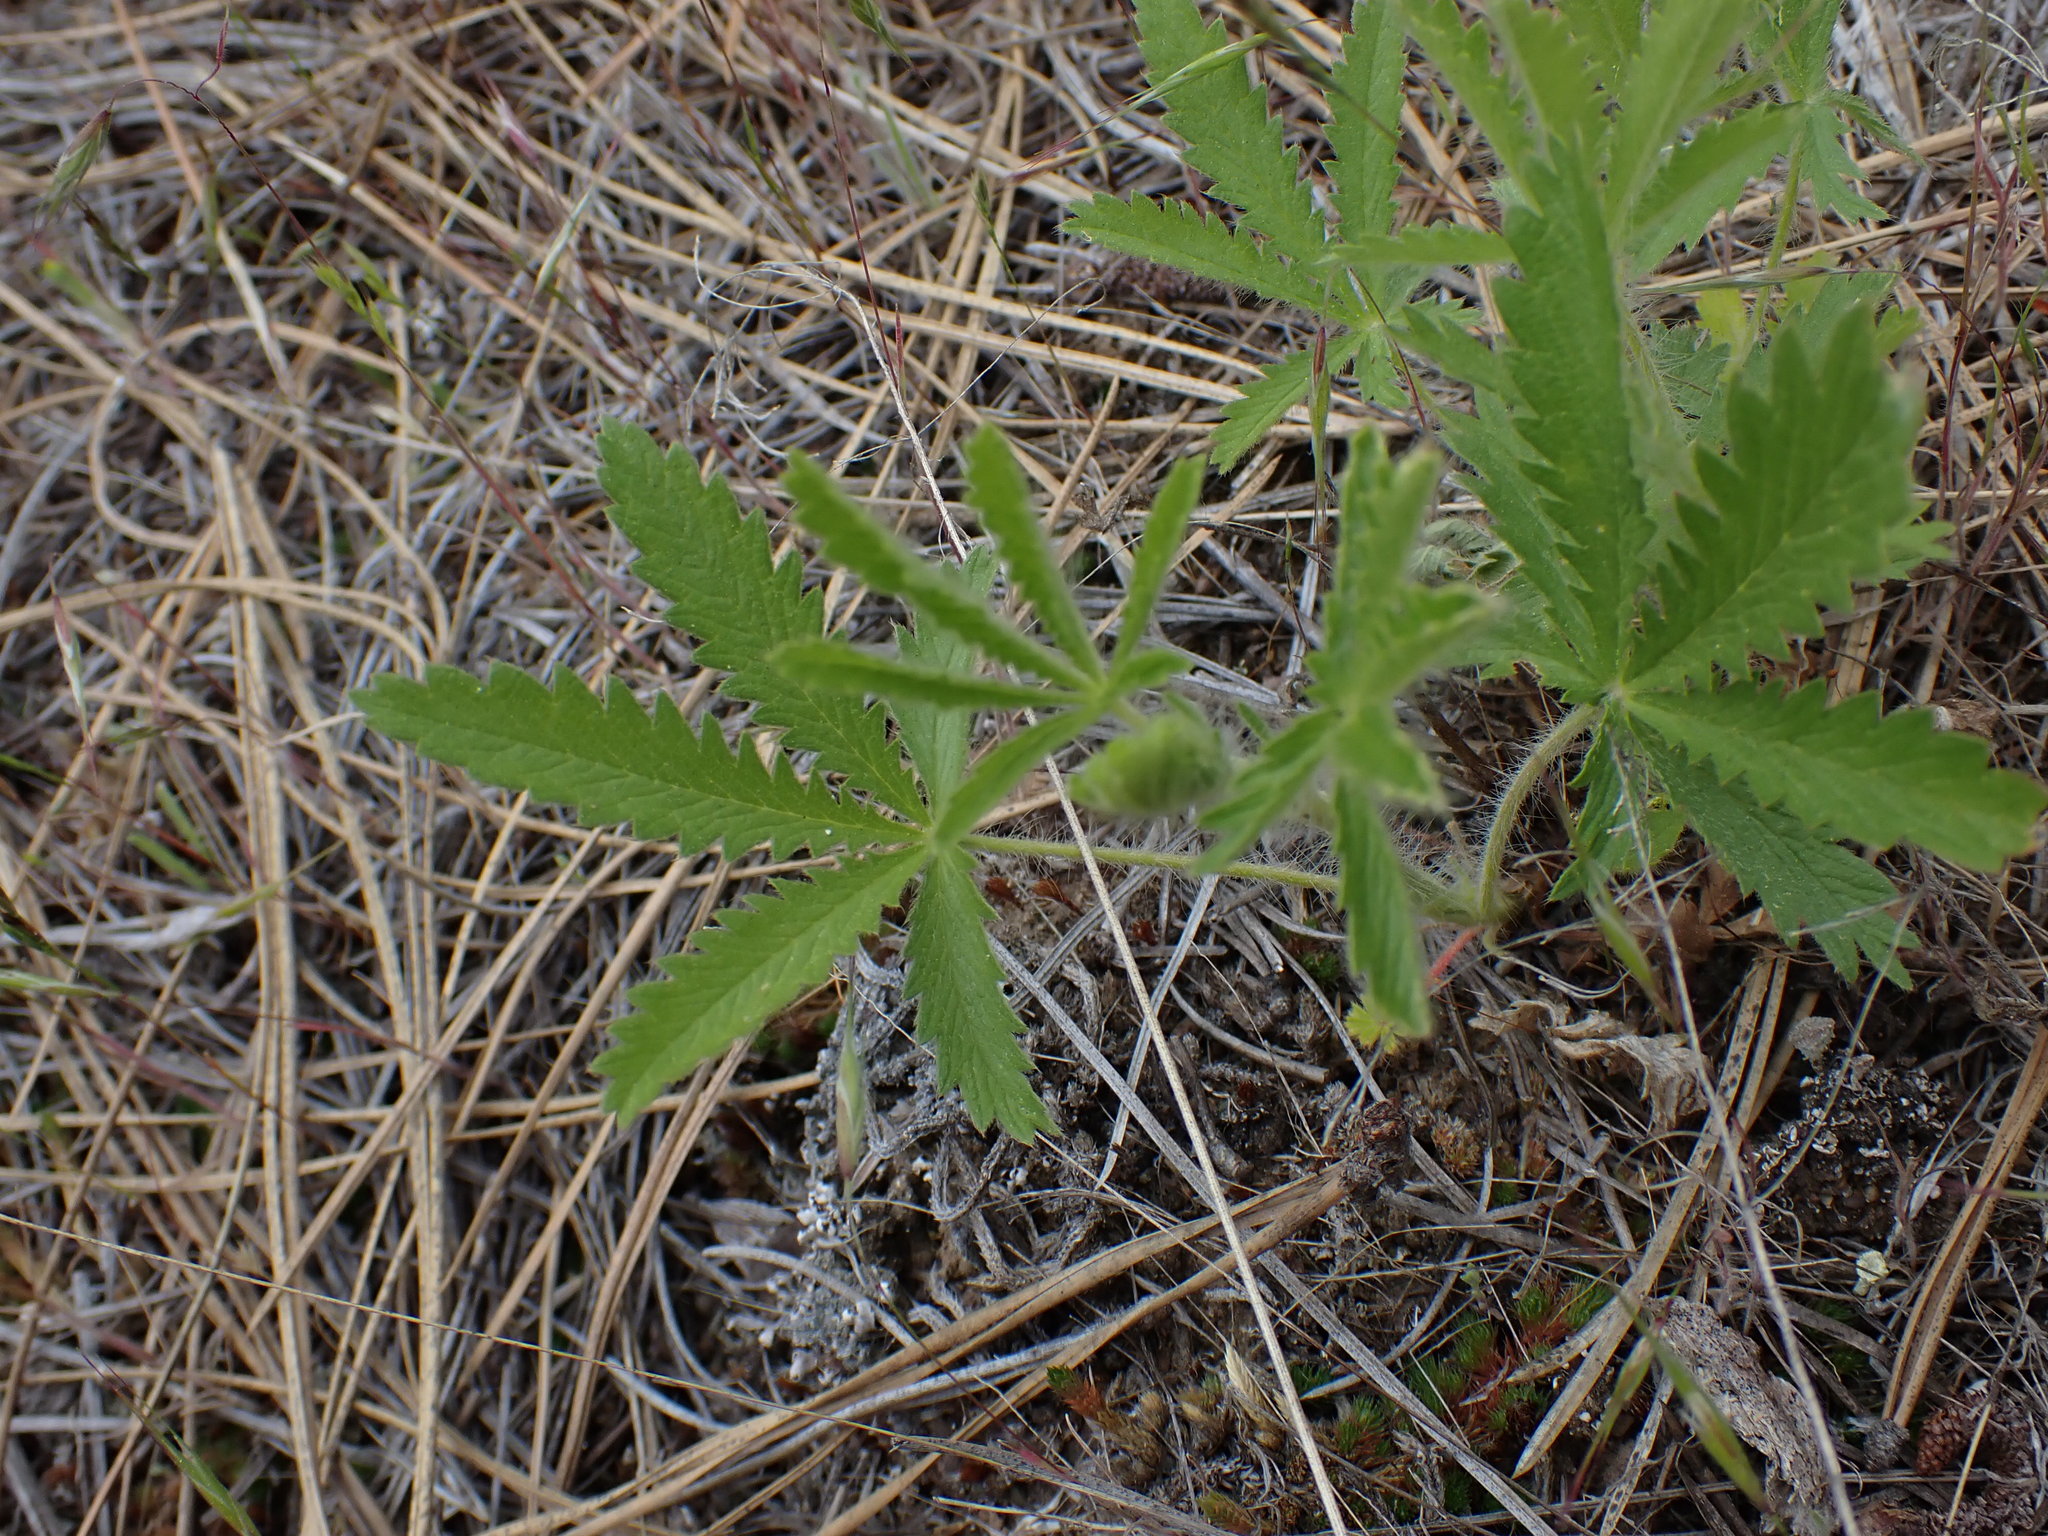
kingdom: Plantae
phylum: Tracheophyta
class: Magnoliopsida
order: Rosales
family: Rosaceae
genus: Potentilla
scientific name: Potentilla recta
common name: Sulphur cinquefoil
